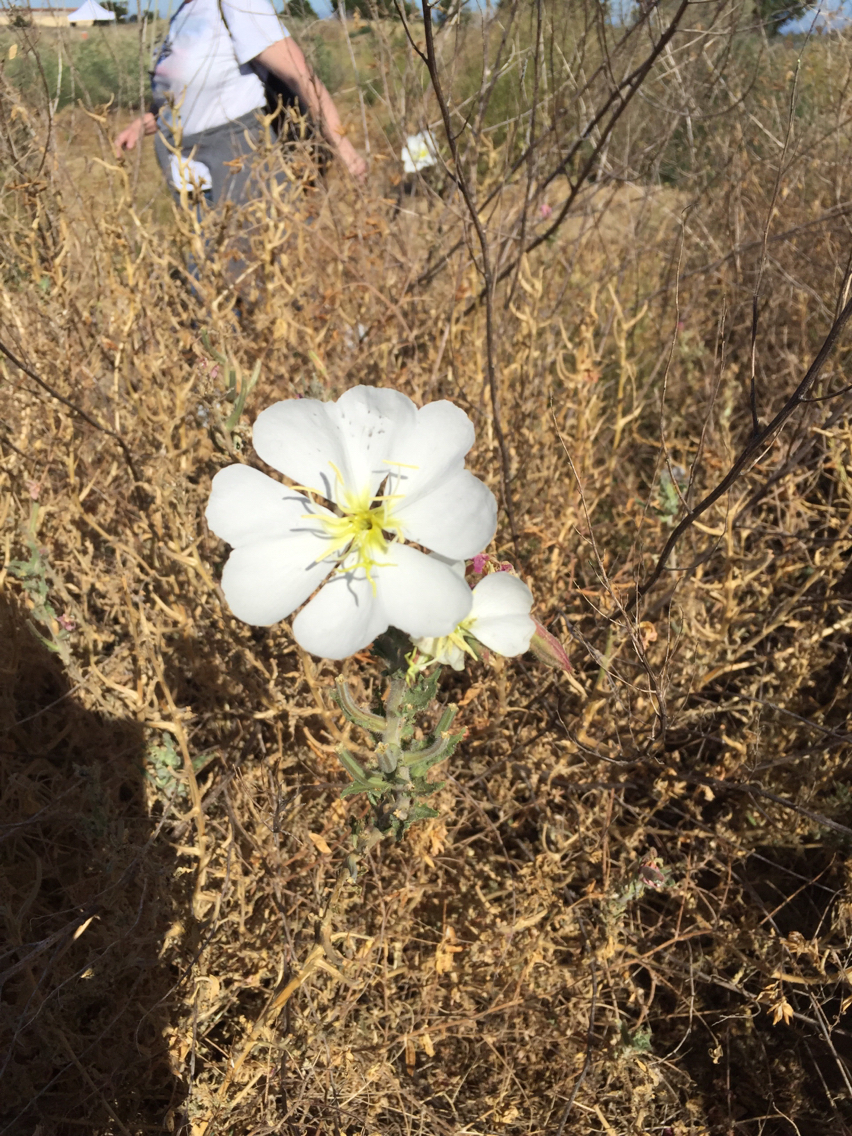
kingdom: Plantae
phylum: Tracheophyta
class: Magnoliopsida
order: Myrtales
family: Onagraceae
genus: Oenothera
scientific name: Oenothera deltoides
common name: Basket evening-primrose
